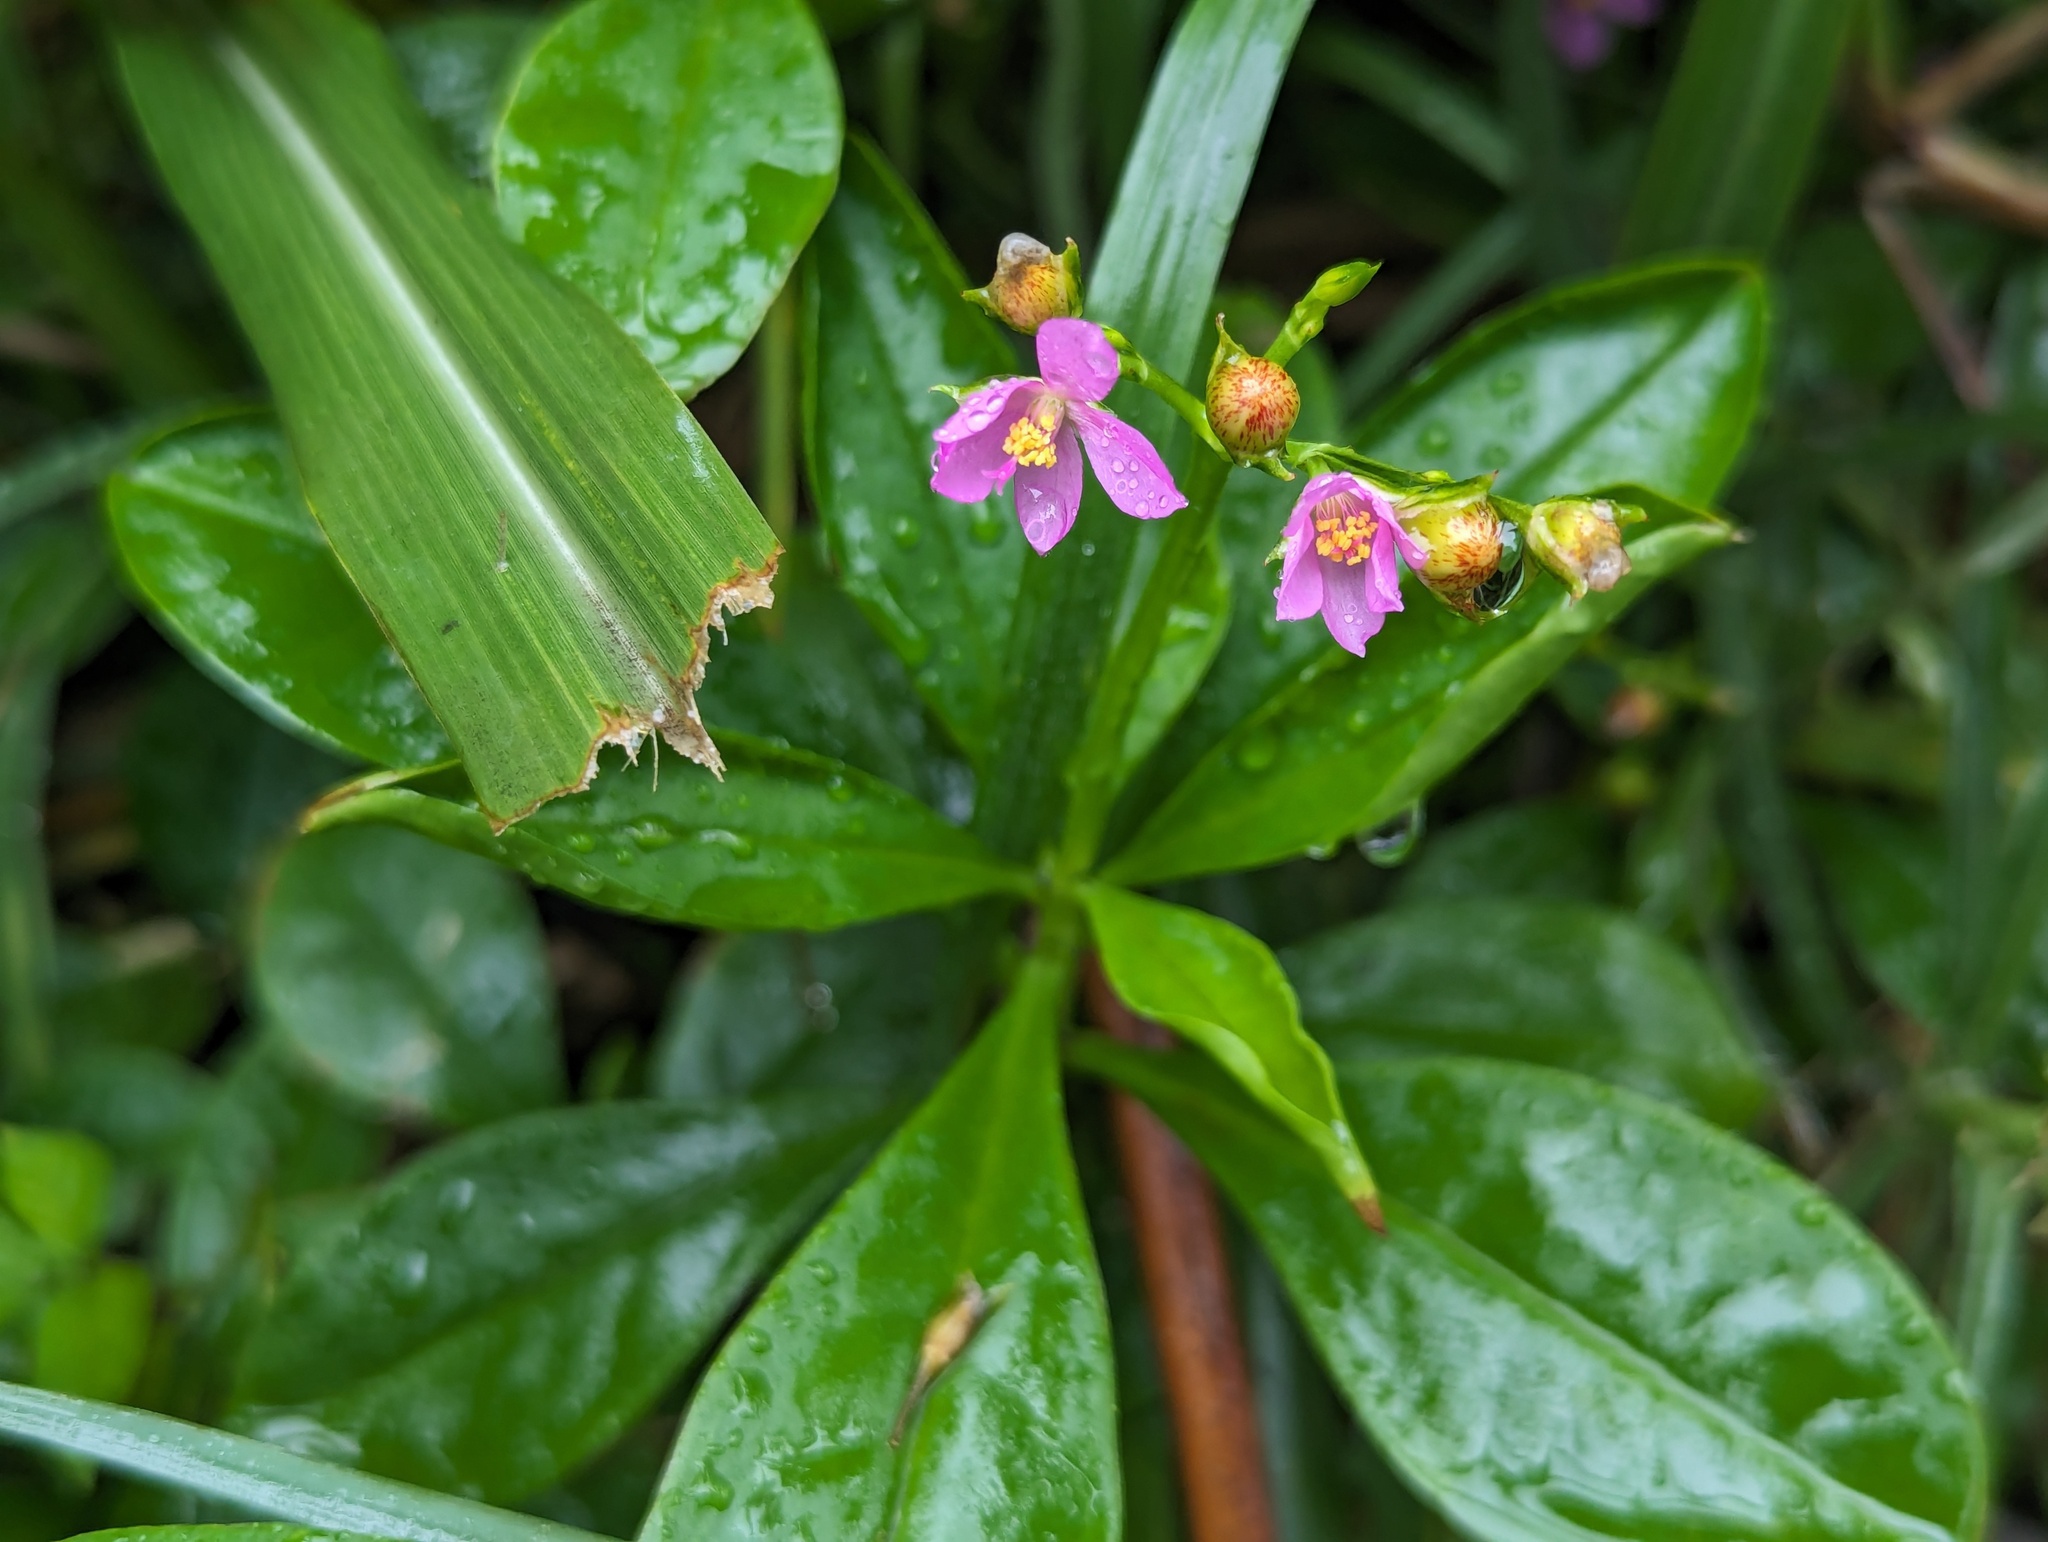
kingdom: Plantae
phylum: Tracheophyta
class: Magnoliopsida
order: Caryophyllales
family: Talinaceae
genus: Talinum
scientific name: Talinum fruticosum
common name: Verdolaga-francesa
